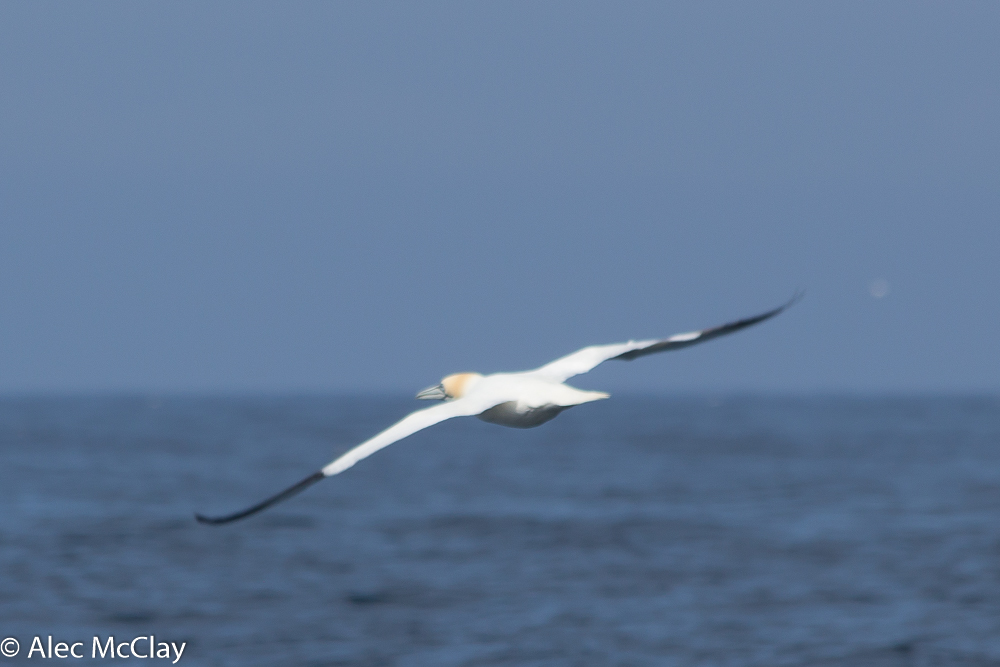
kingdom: Animalia
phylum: Chordata
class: Aves
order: Suliformes
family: Sulidae
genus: Morus
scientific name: Morus bassanus
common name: Northern gannet
